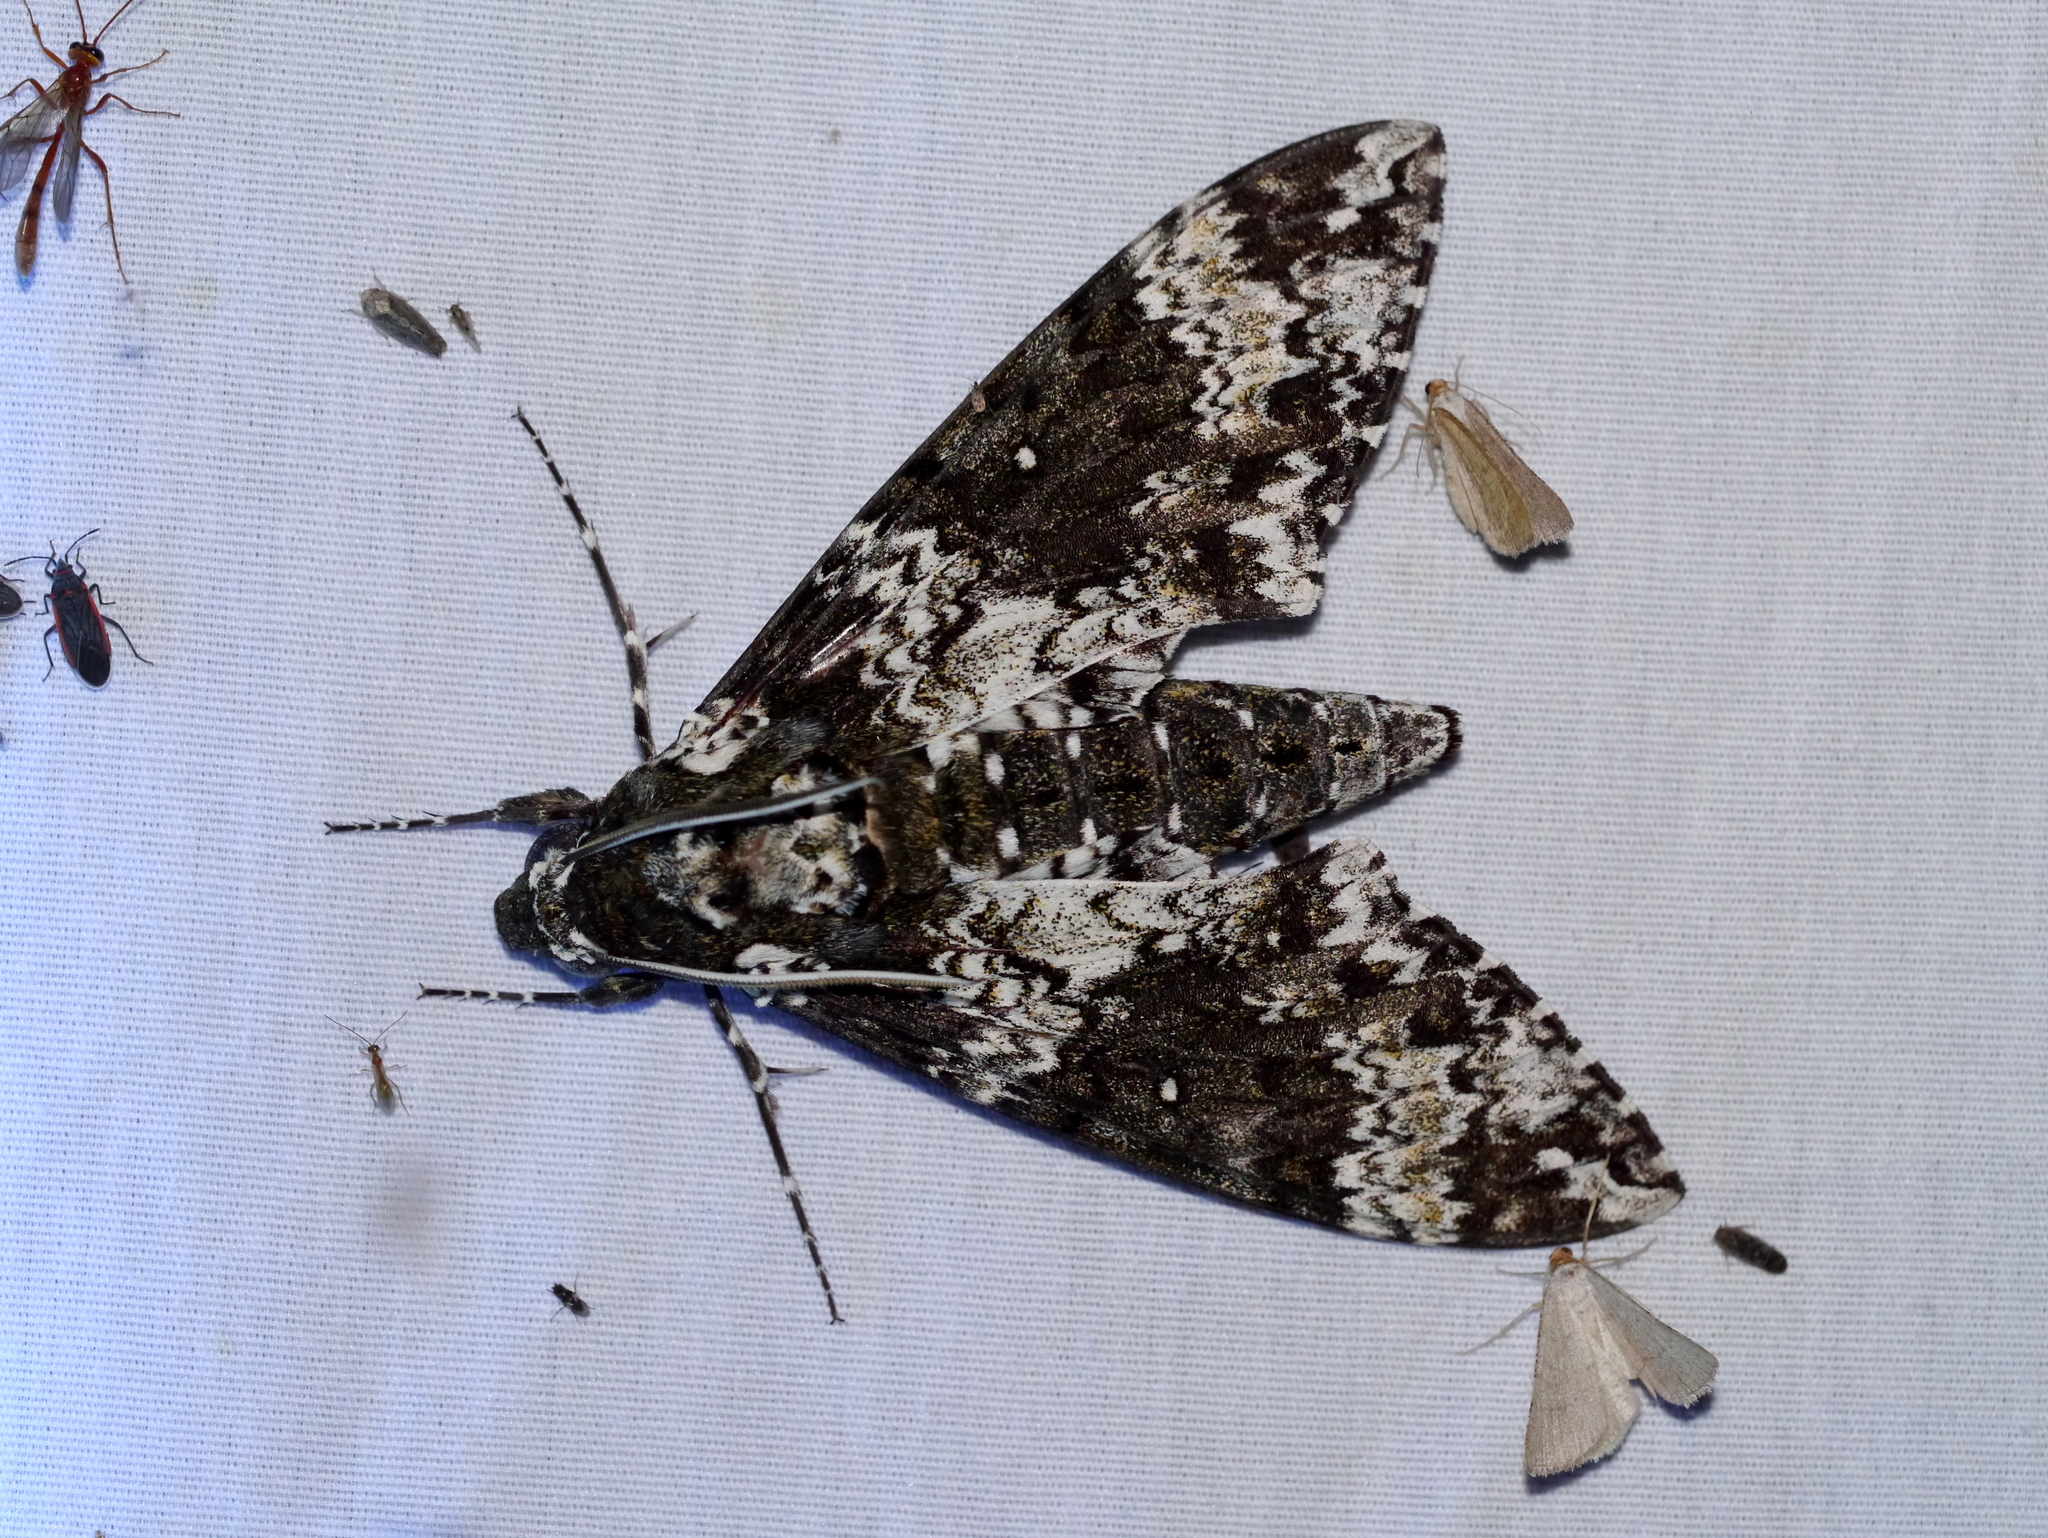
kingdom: Animalia
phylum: Arthropoda
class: Insecta
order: Lepidoptera
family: Sphingidae
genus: Manduca
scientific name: Manduca rustica
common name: Rustic sphinx
